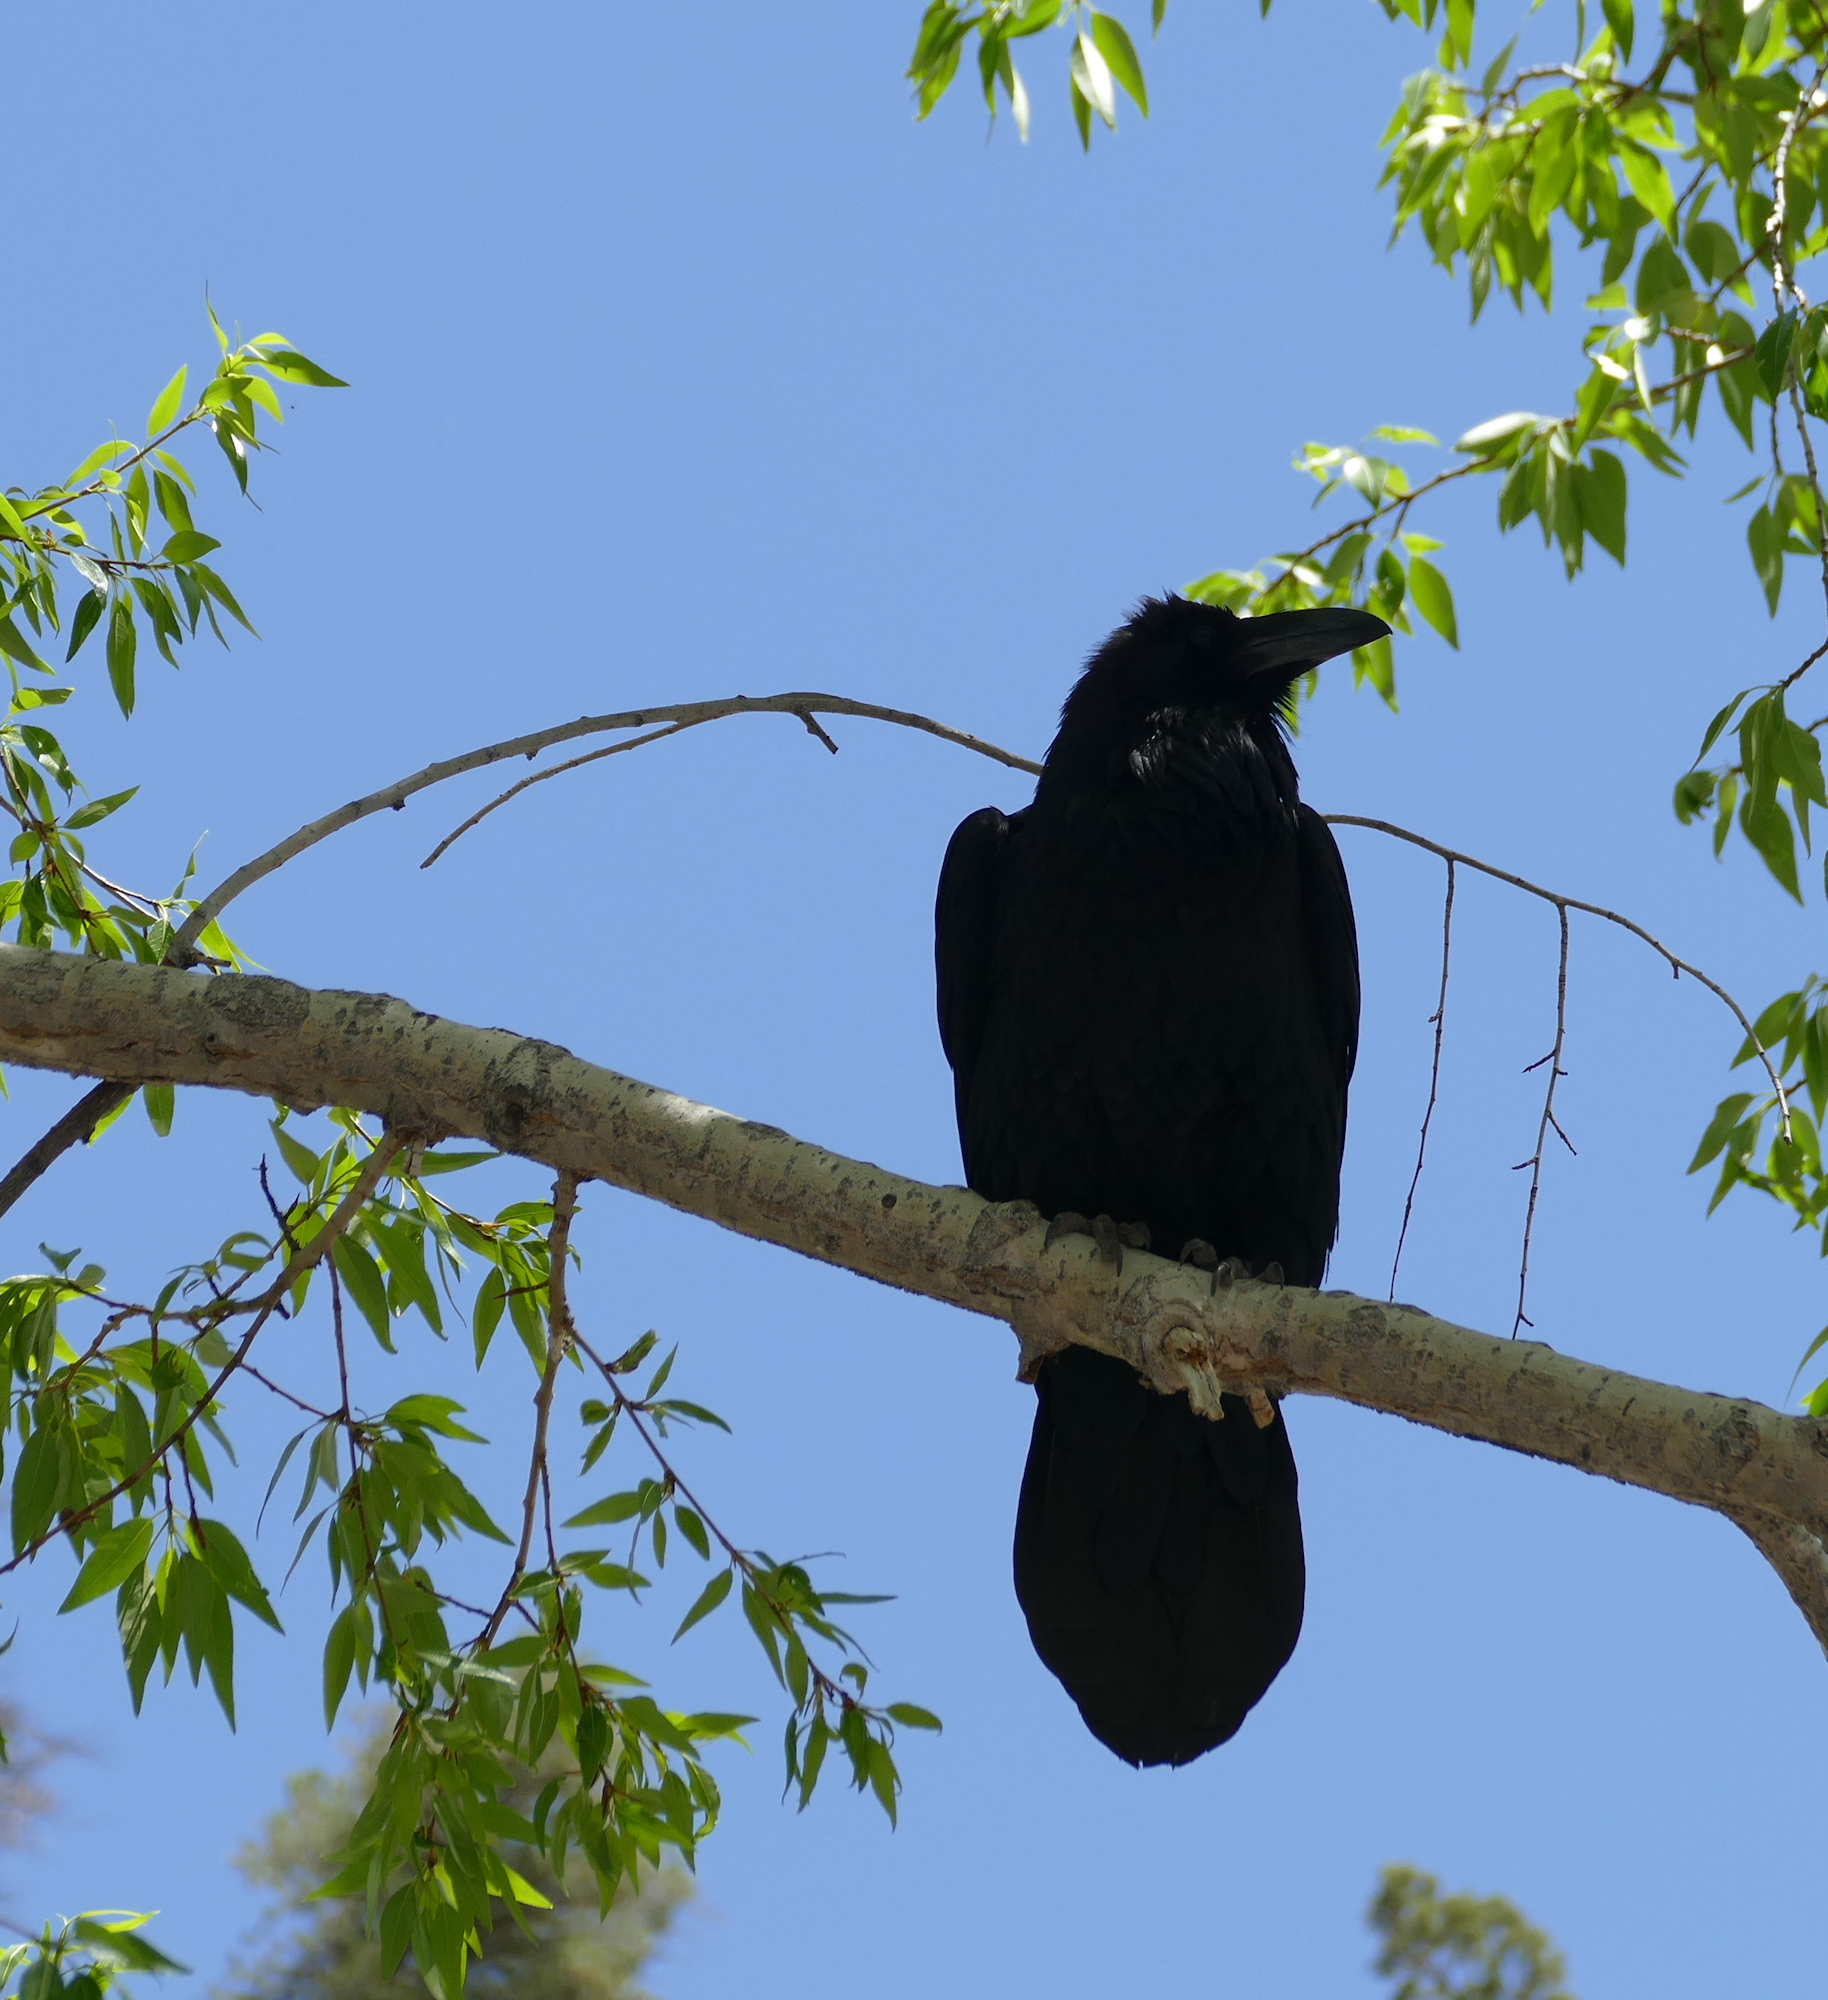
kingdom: Animalia
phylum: Chordata
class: Aves
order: Passeriformes
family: Corvidae
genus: Corvus
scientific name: Corvus corax
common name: Common raven
